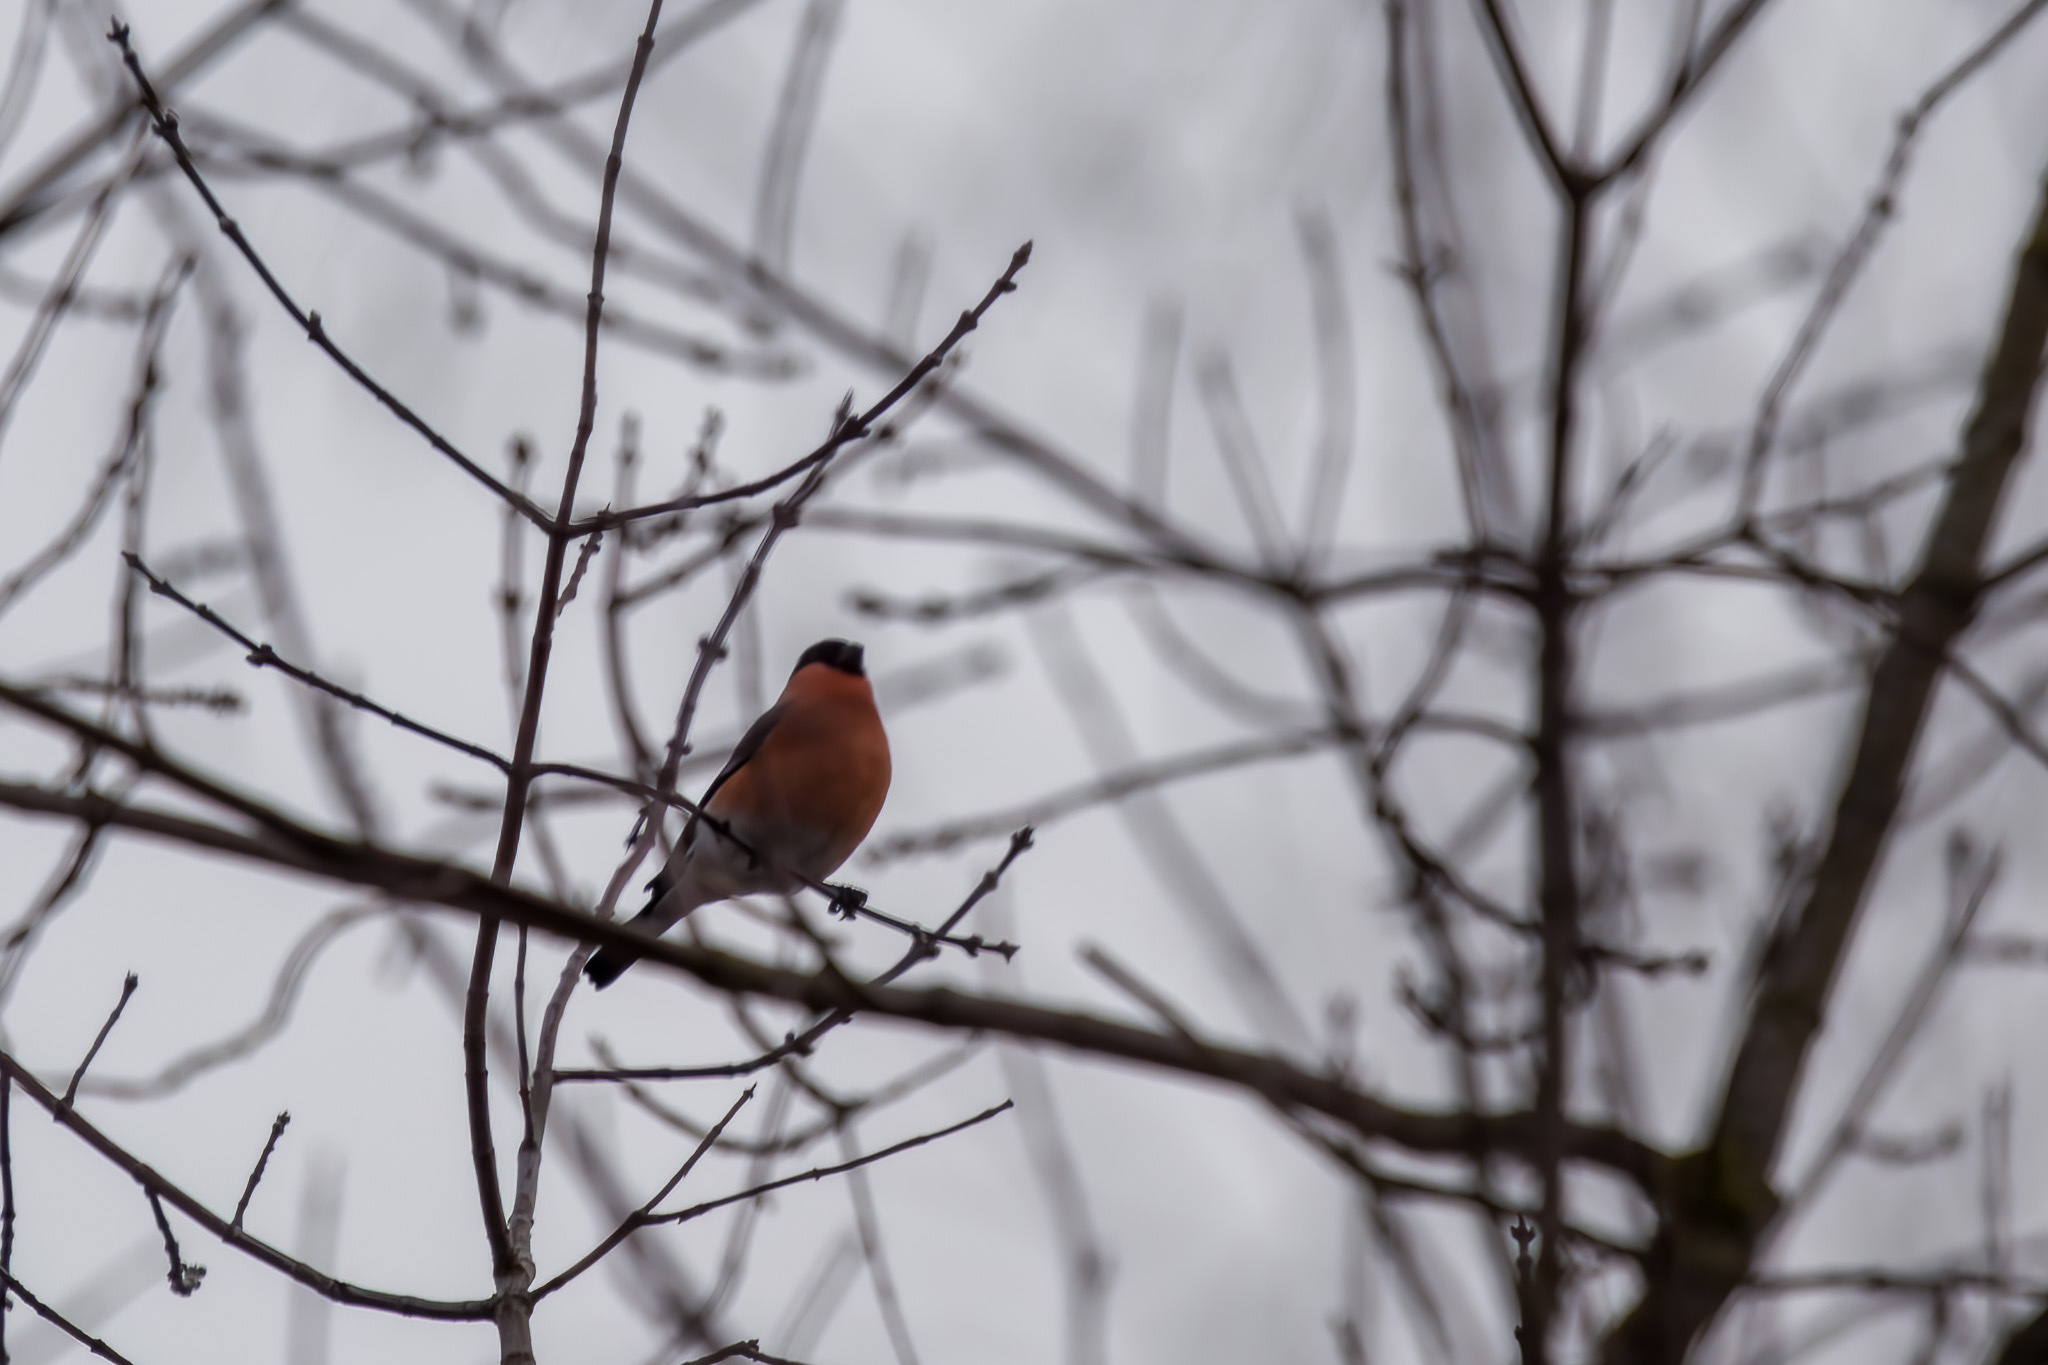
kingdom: Animalia
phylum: Chordata
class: Aves
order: Passeriformes
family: Fringillidae
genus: Pyrrhula
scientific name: Pyrrhula pyrrhula
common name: Eurasian bullfinch
